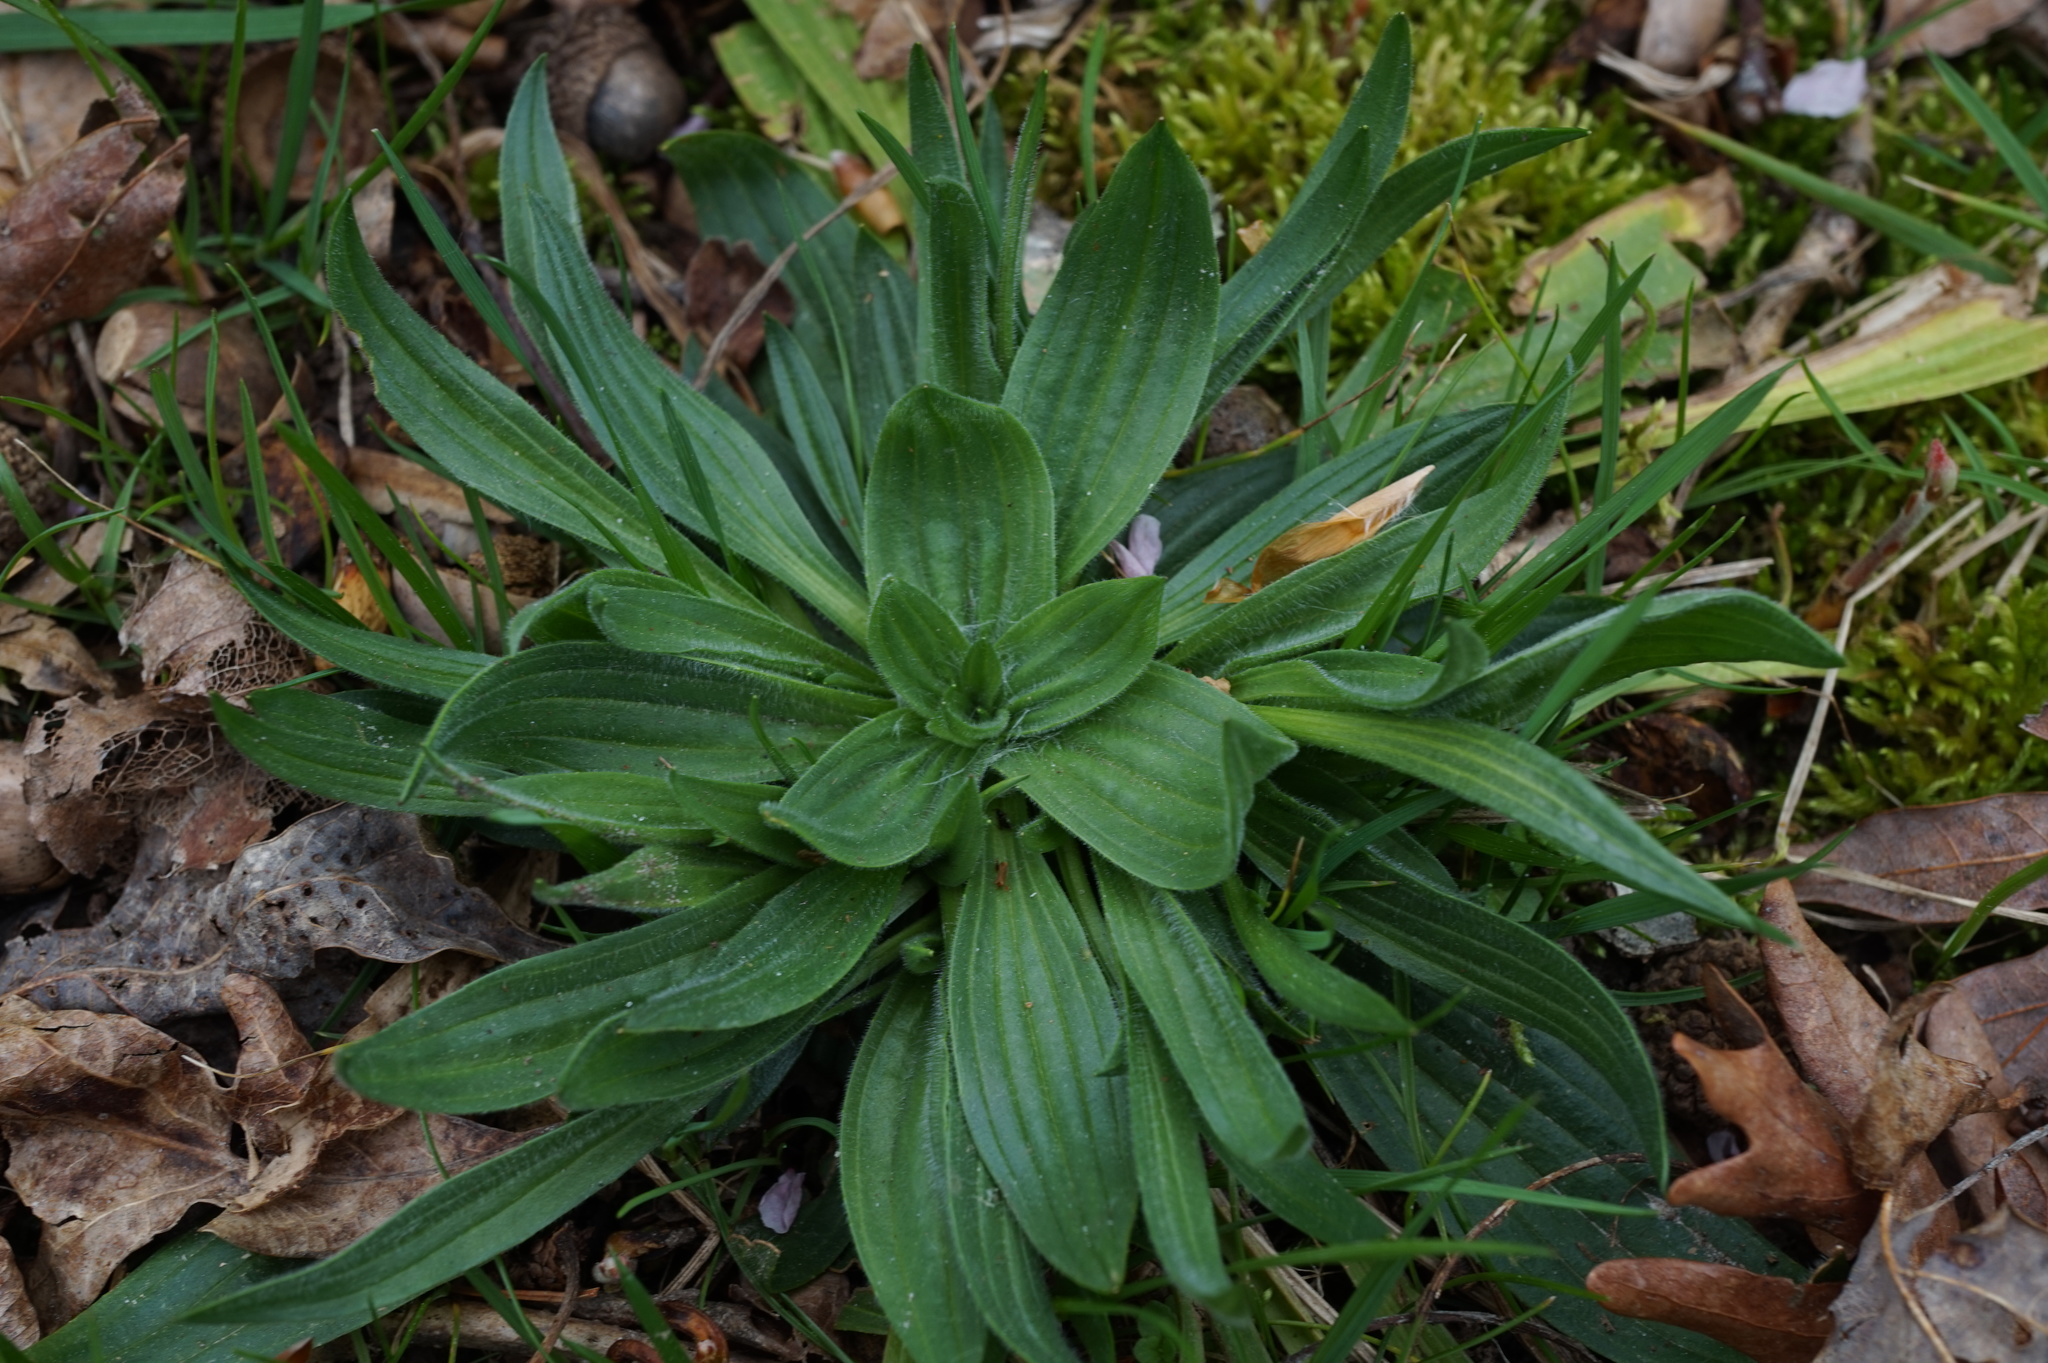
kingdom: Plantae
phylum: Tracheophyta
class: Magnoliopsida
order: Lamiales
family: Plantaginaceae
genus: Plantago
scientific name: Plantago lanceolata
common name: Ribwort plantain
